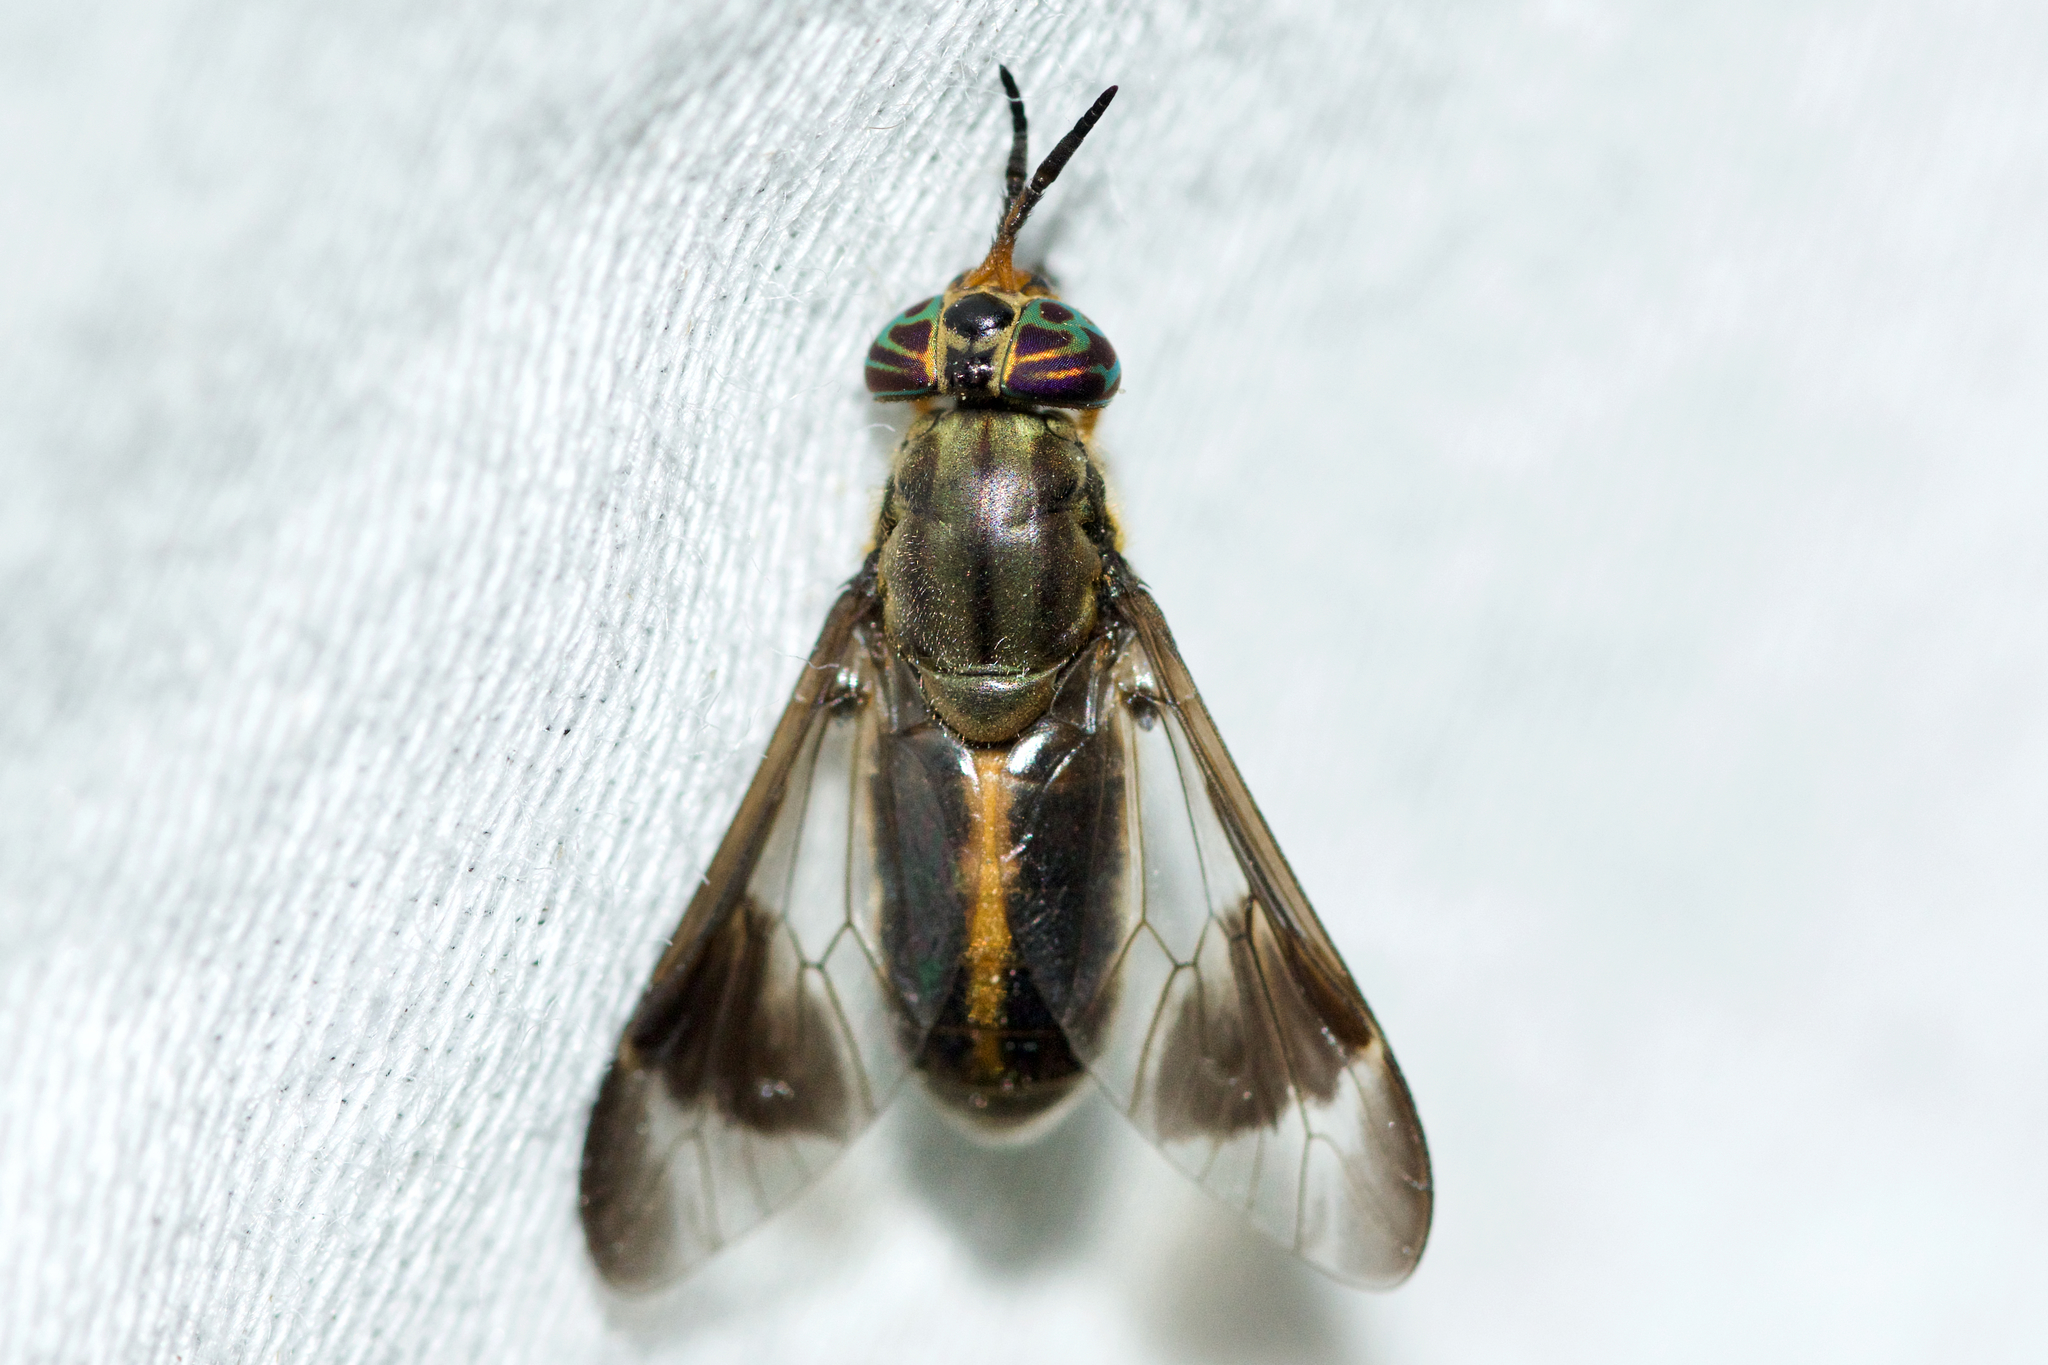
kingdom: Animalia
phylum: Arthropoda
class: Insecta
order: Diptera
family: Tabanidae
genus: Chrysops
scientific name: Chrysops univittatus
